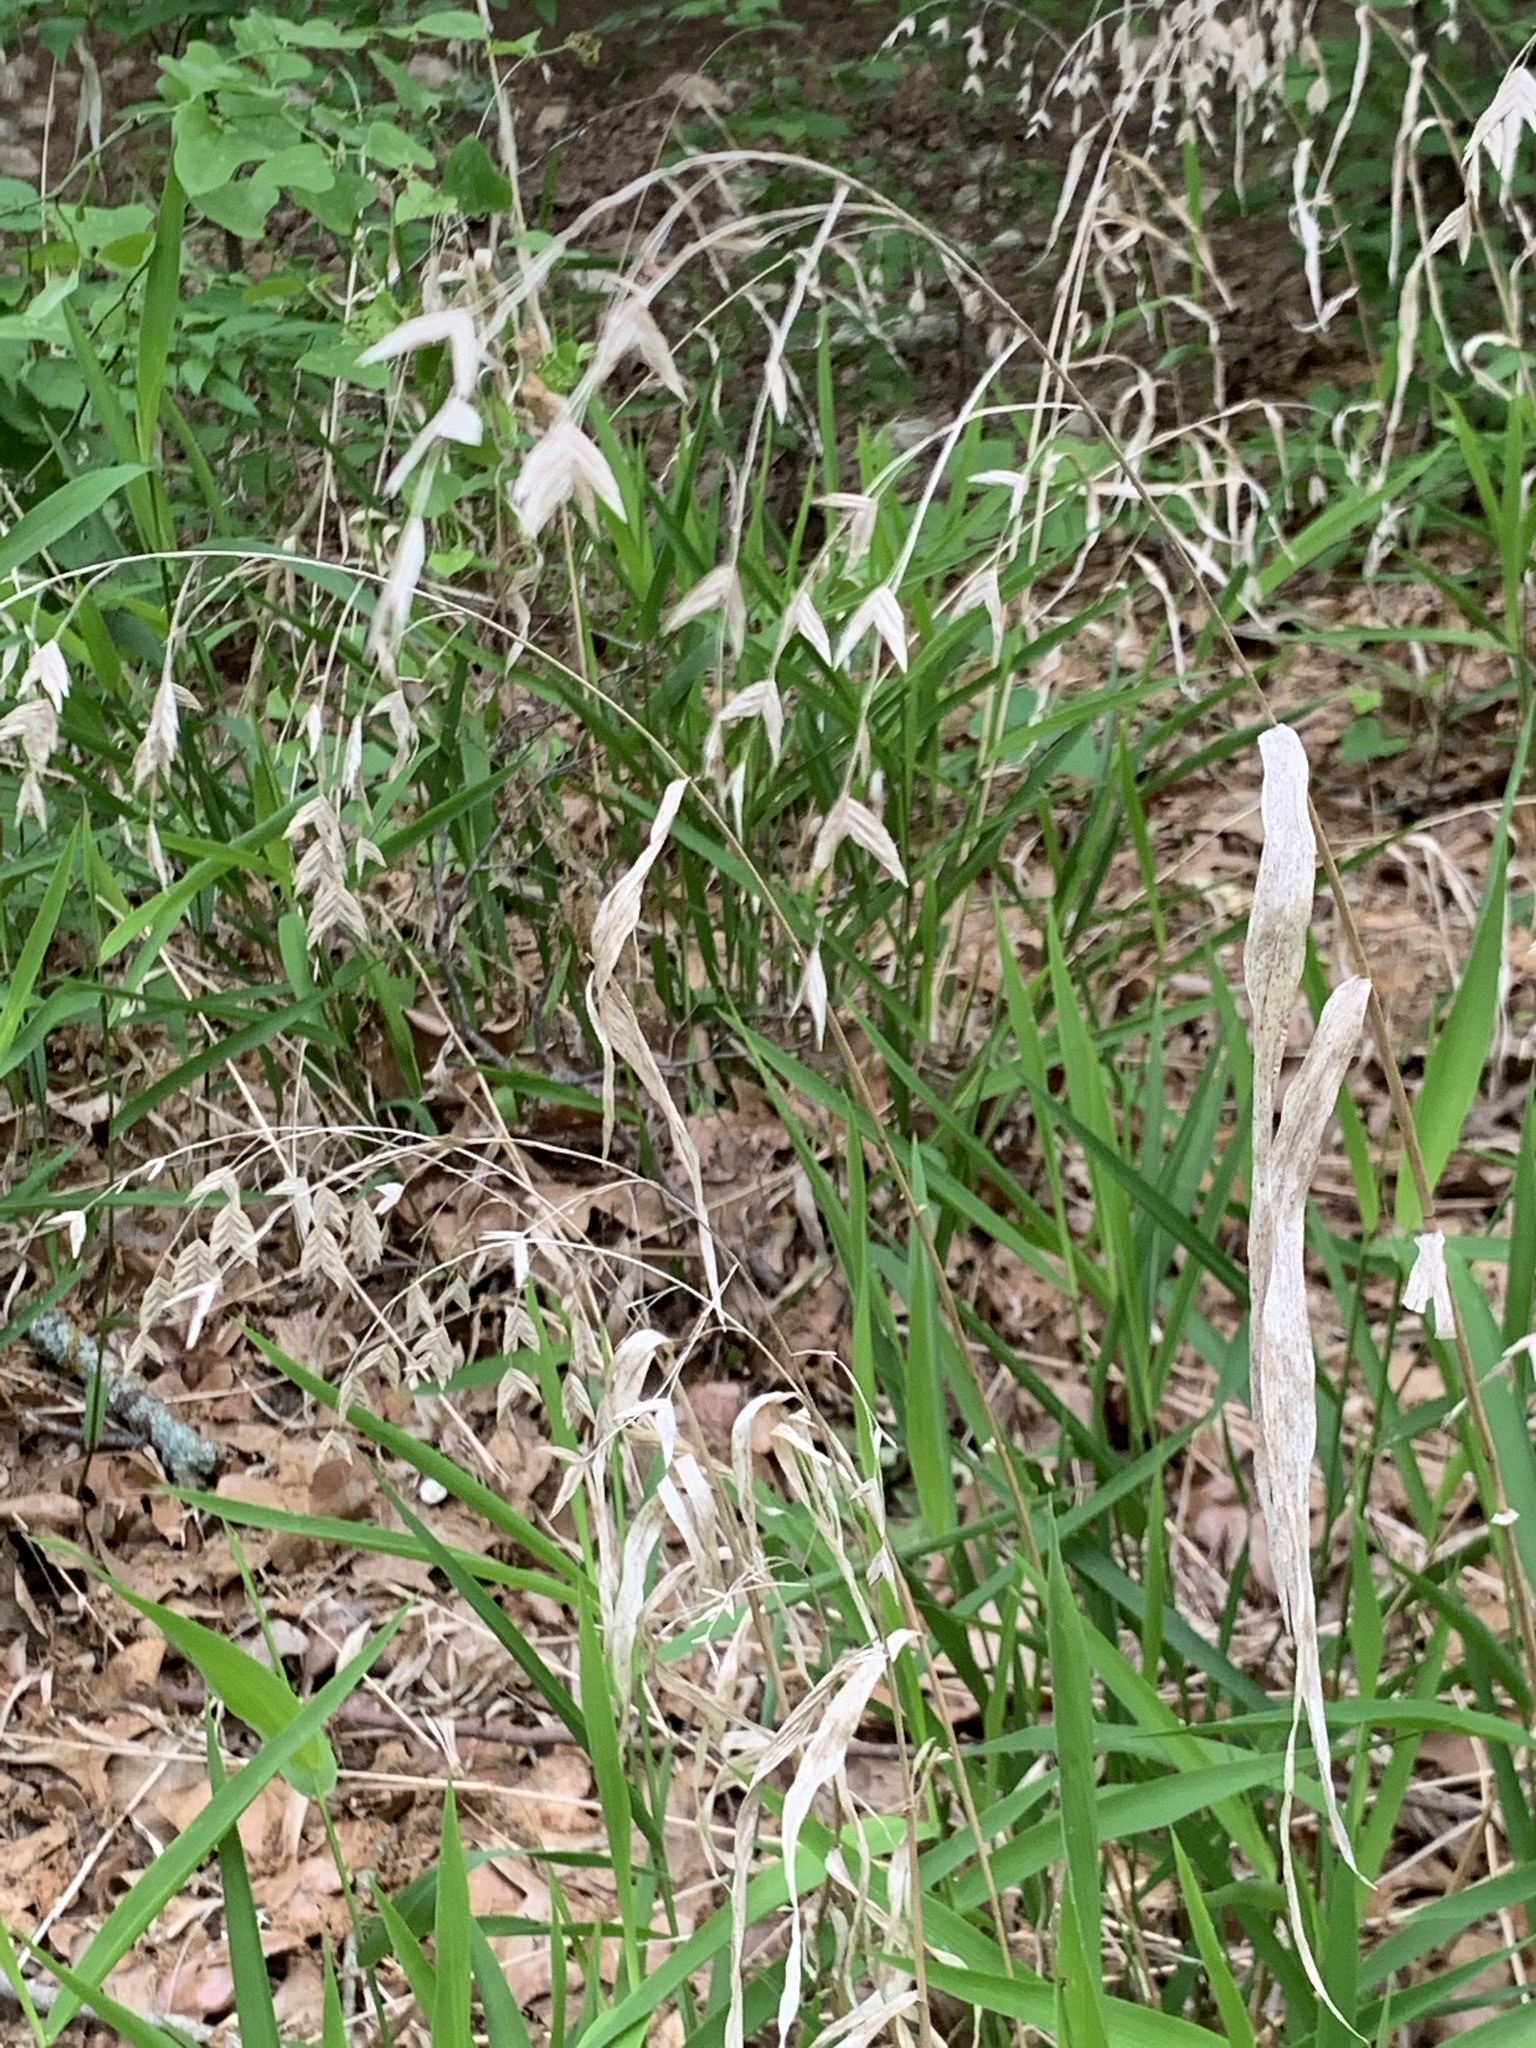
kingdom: Plantae
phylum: Tracheophyta
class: Liliopsida
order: Poales
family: Poaceae
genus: Chasmanthium
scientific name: Chasmanthium latifolium
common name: Broad-leaved chasmanthium
